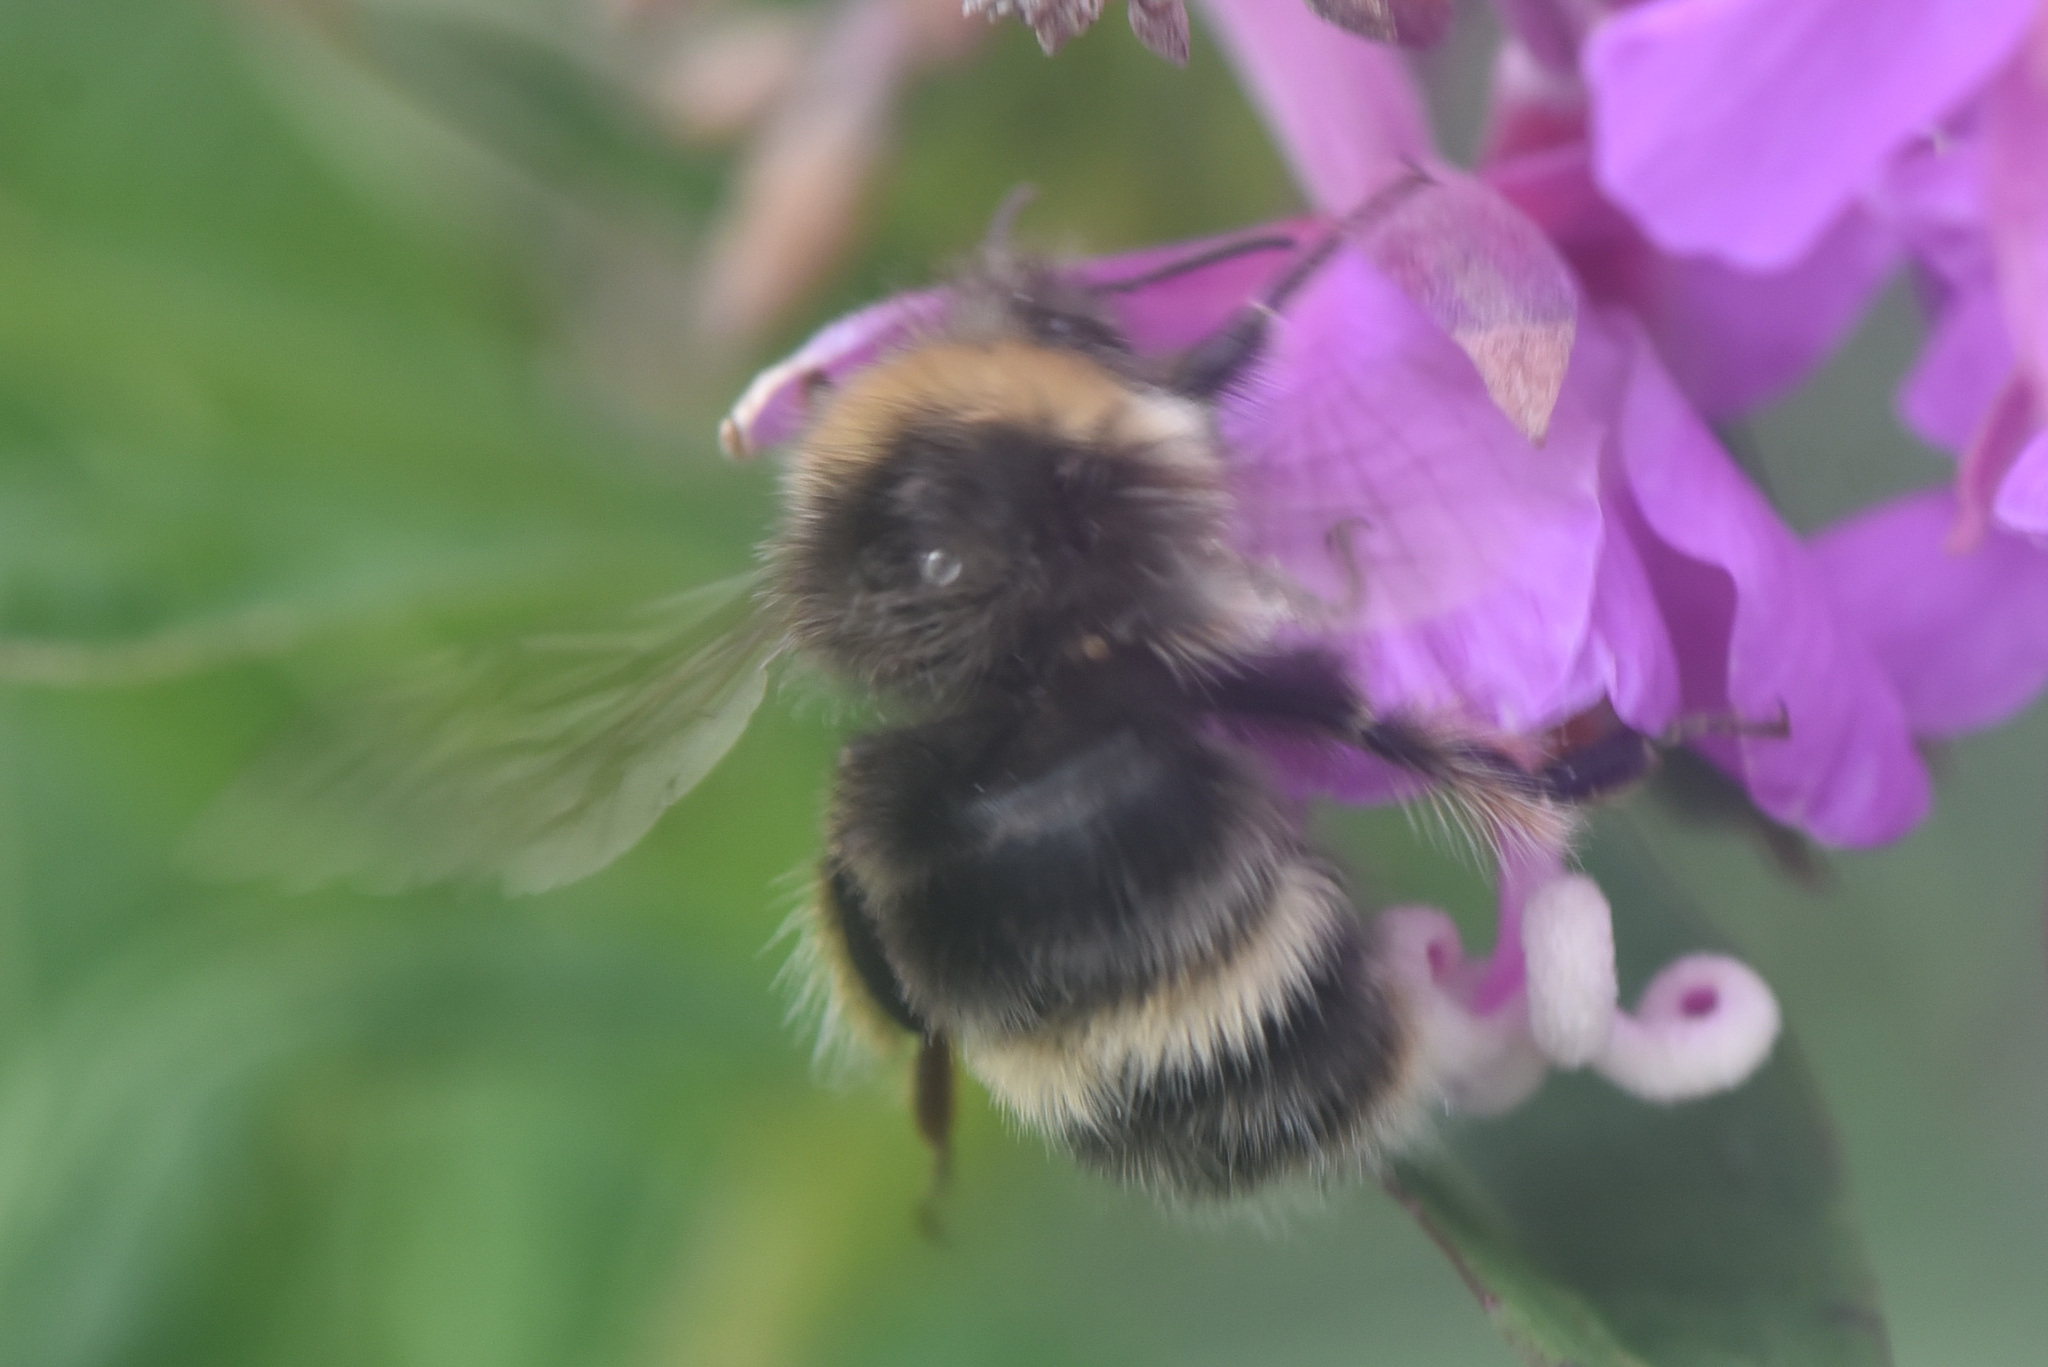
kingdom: Animalia
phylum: Arthropoda
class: Insecta
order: Hymenoptera
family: Apidae
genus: Bombus
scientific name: Bombus mckayi
